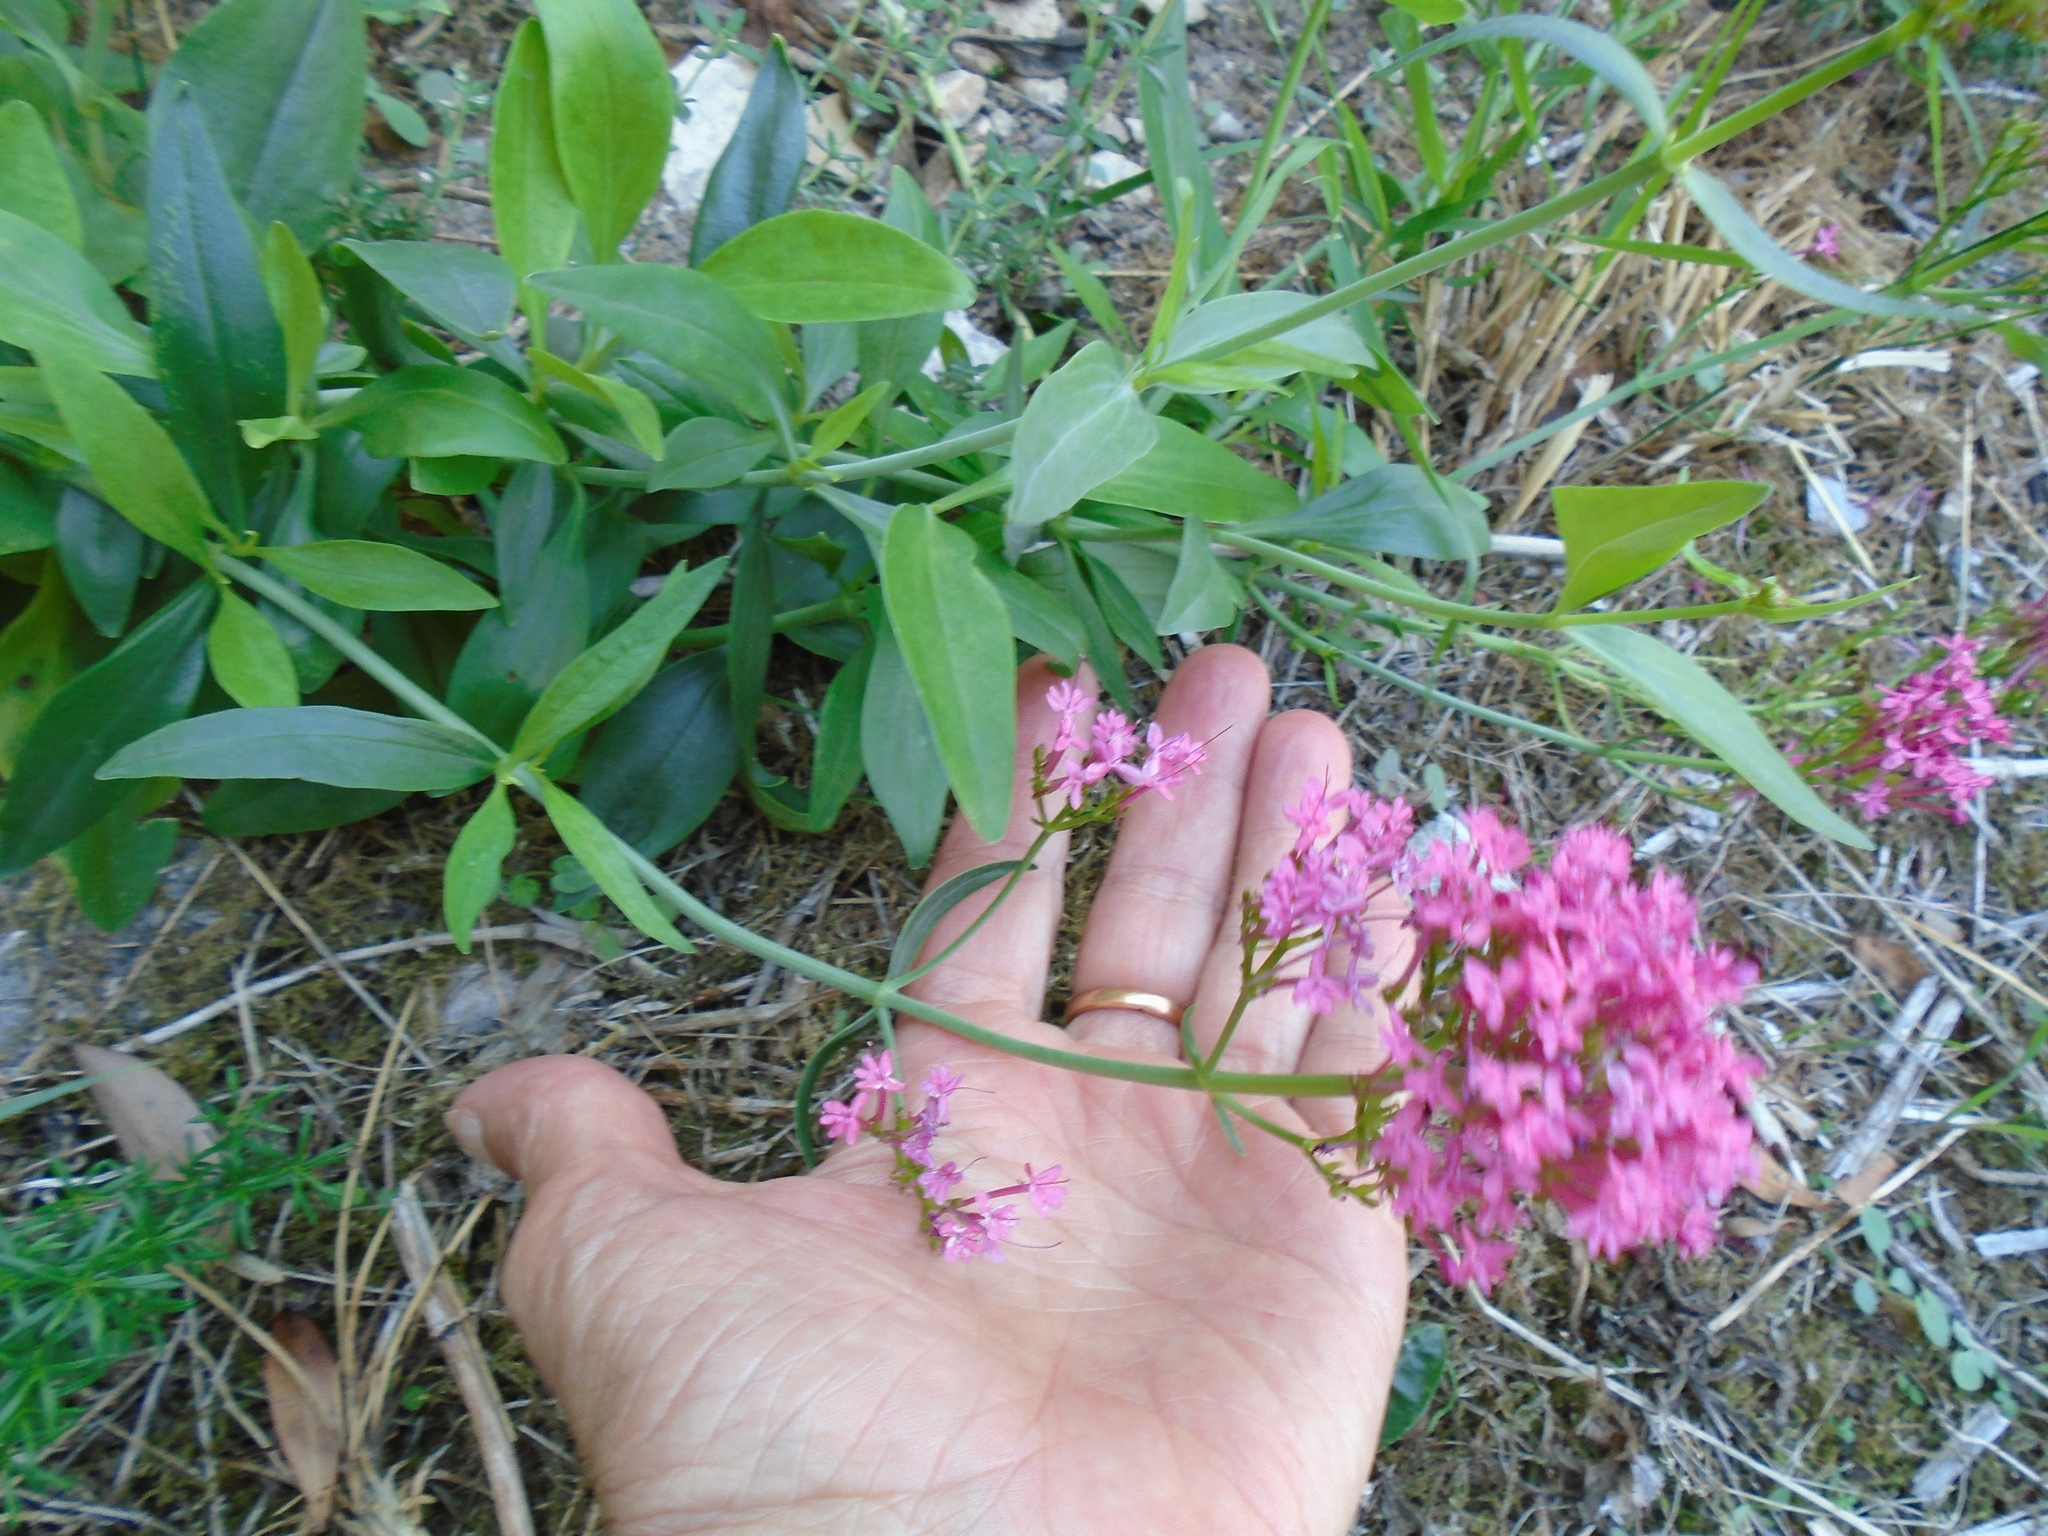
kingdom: Plantae
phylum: Tracheophyta
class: Magnoliopsida
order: Dipsacales
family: Caprifoliaceae
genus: Centranthus
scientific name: Centranthus ruber
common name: Red valerian
